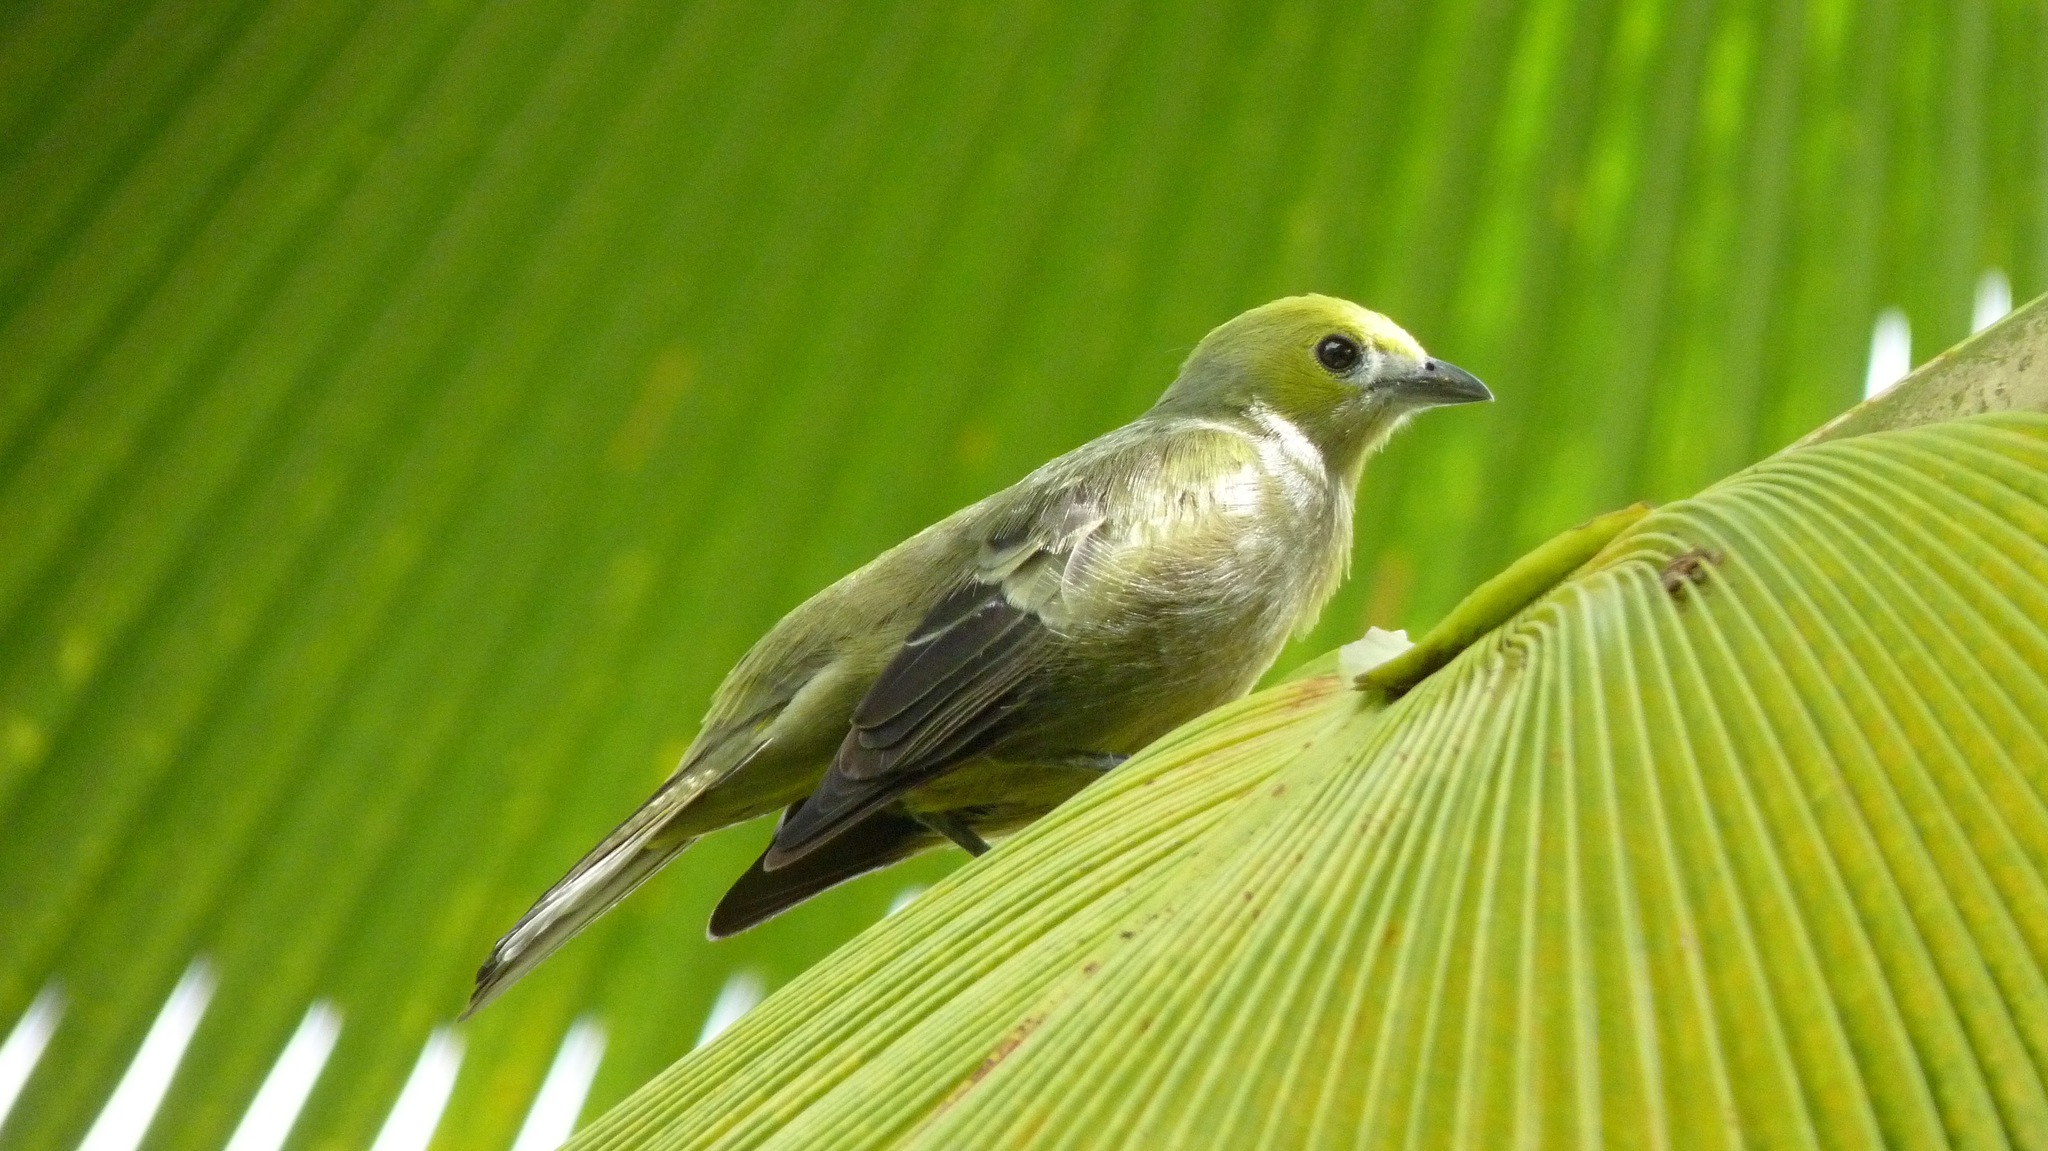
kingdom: Animalia
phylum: Chordata
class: Aves
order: Passeriformes
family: Thraupidae
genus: Thraupis
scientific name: Thraupis palmarum
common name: Palm tanager
